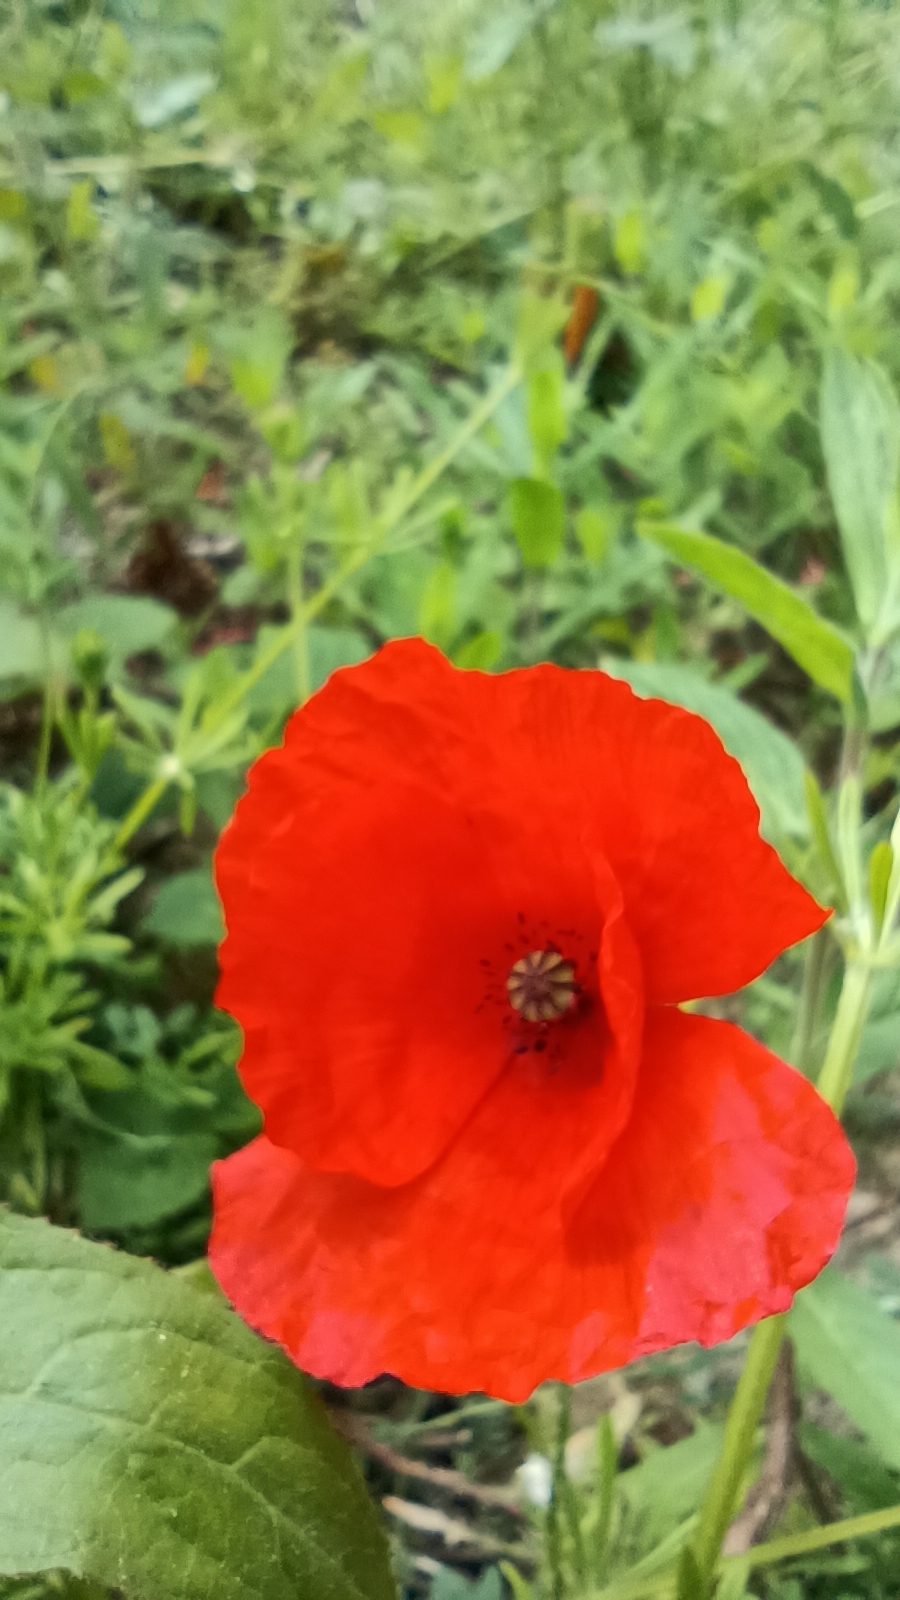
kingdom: Plantae
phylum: Tracheophyta
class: Magnoliopsida
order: Ranunculales
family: Papaveraceae
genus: Papaver
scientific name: Papaver rhoeas
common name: Corn poppy
